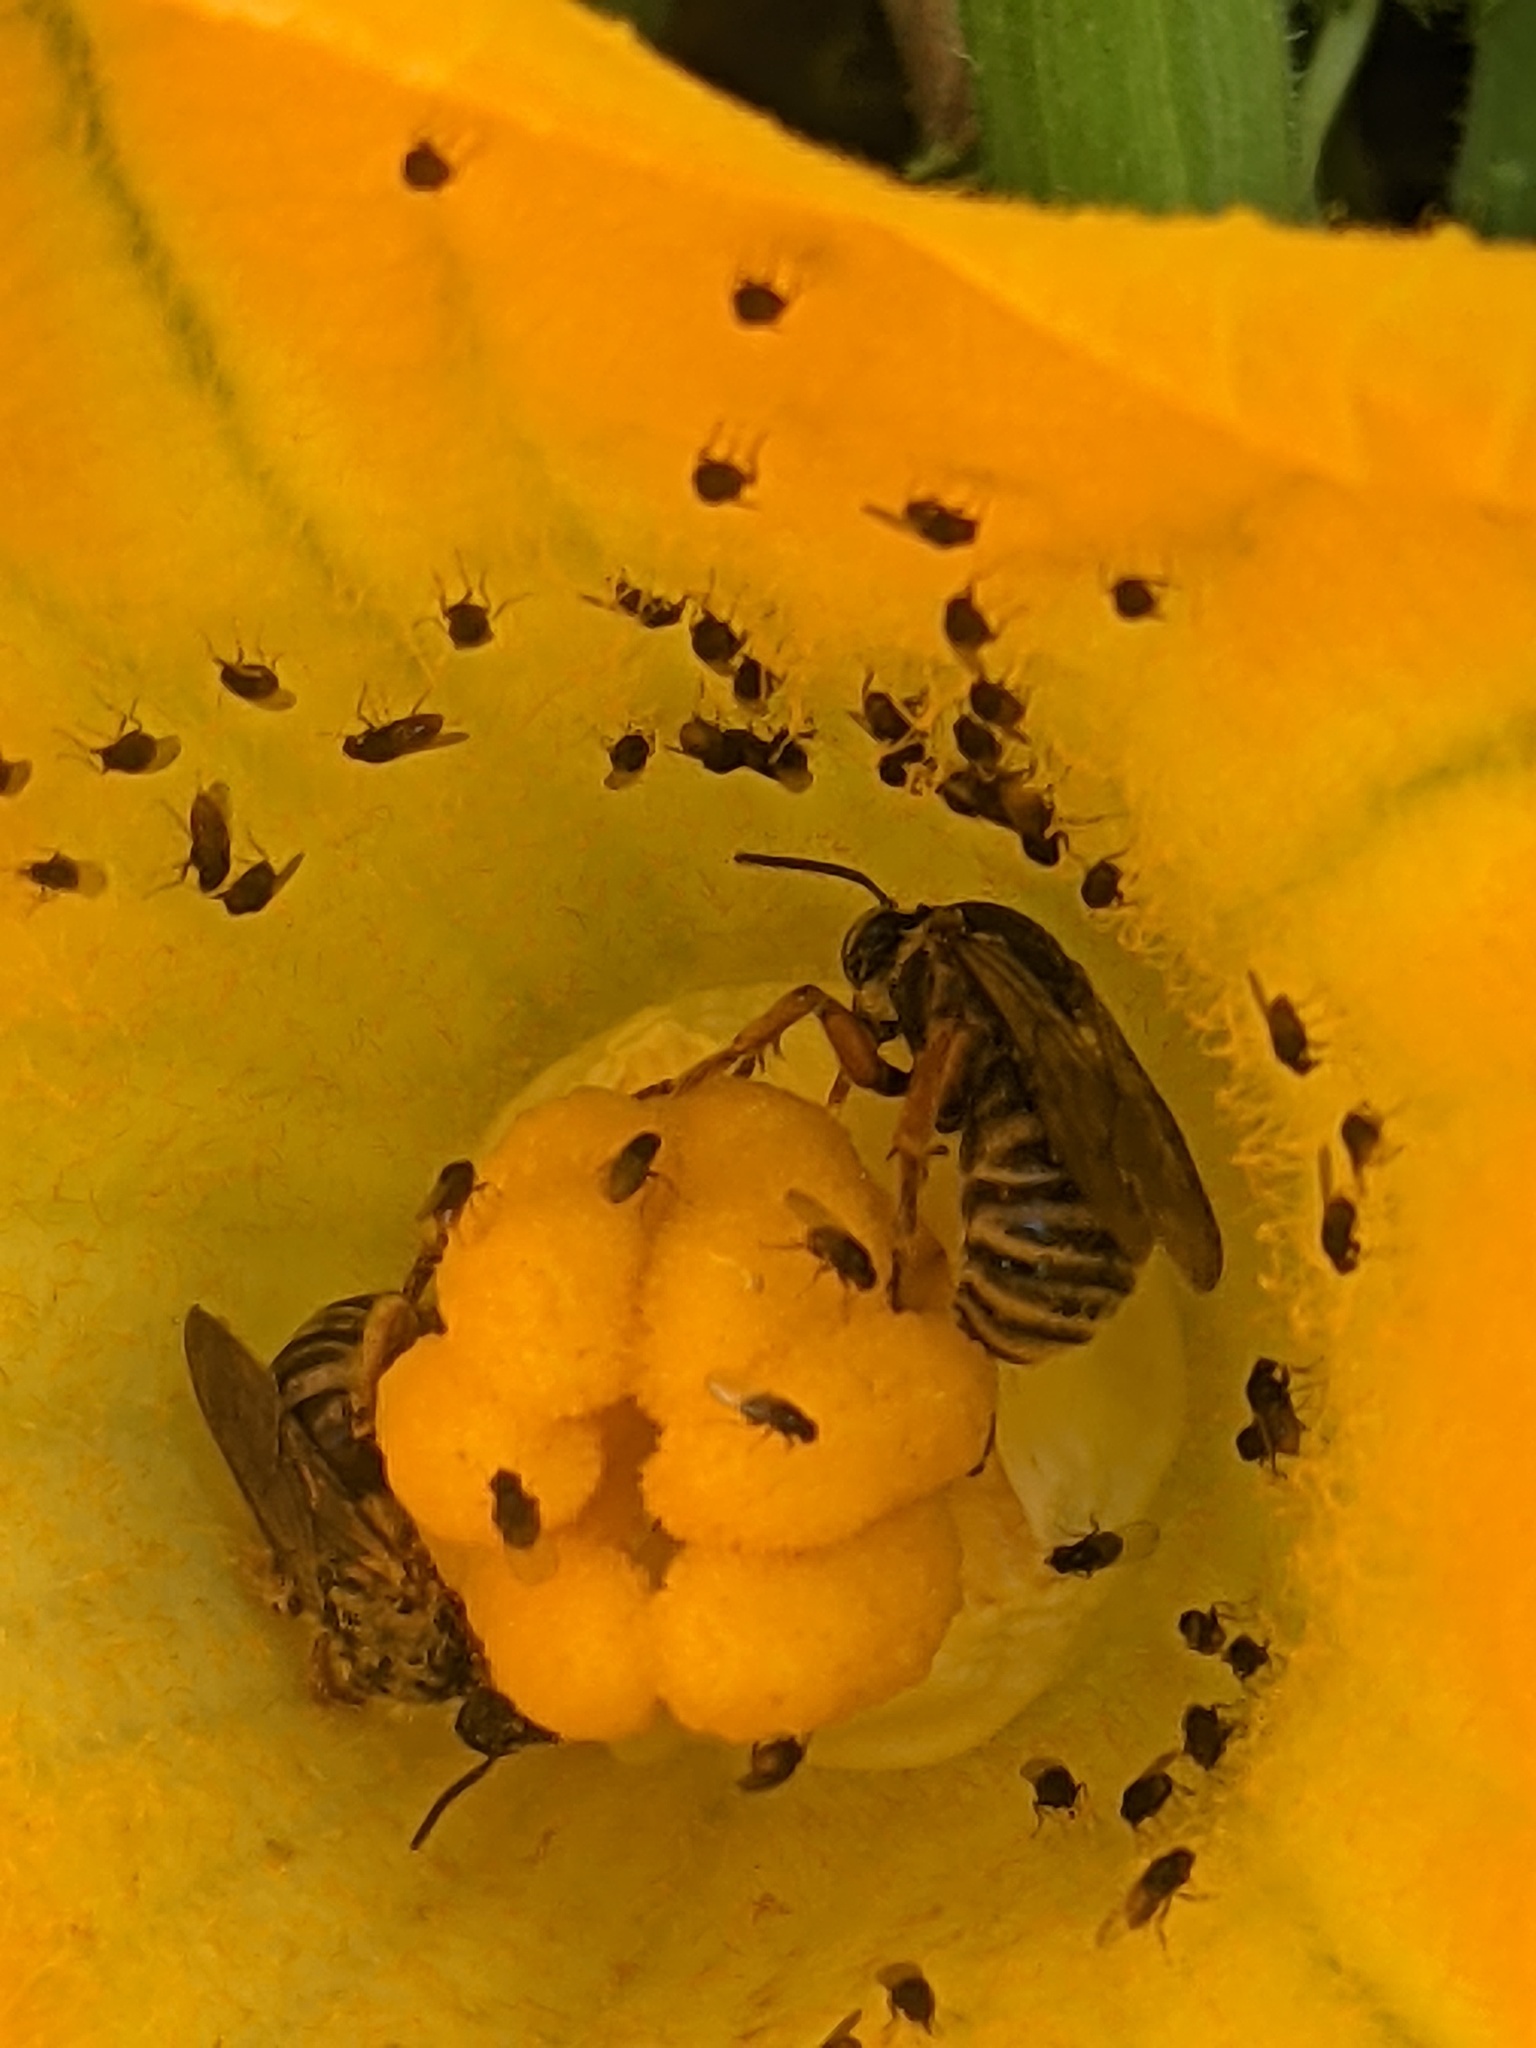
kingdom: Animalia
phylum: Arthropoda
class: Insecta
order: Hymenoptera
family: Apidae
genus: Xenoglossa
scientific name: Xenoglossa strenua
